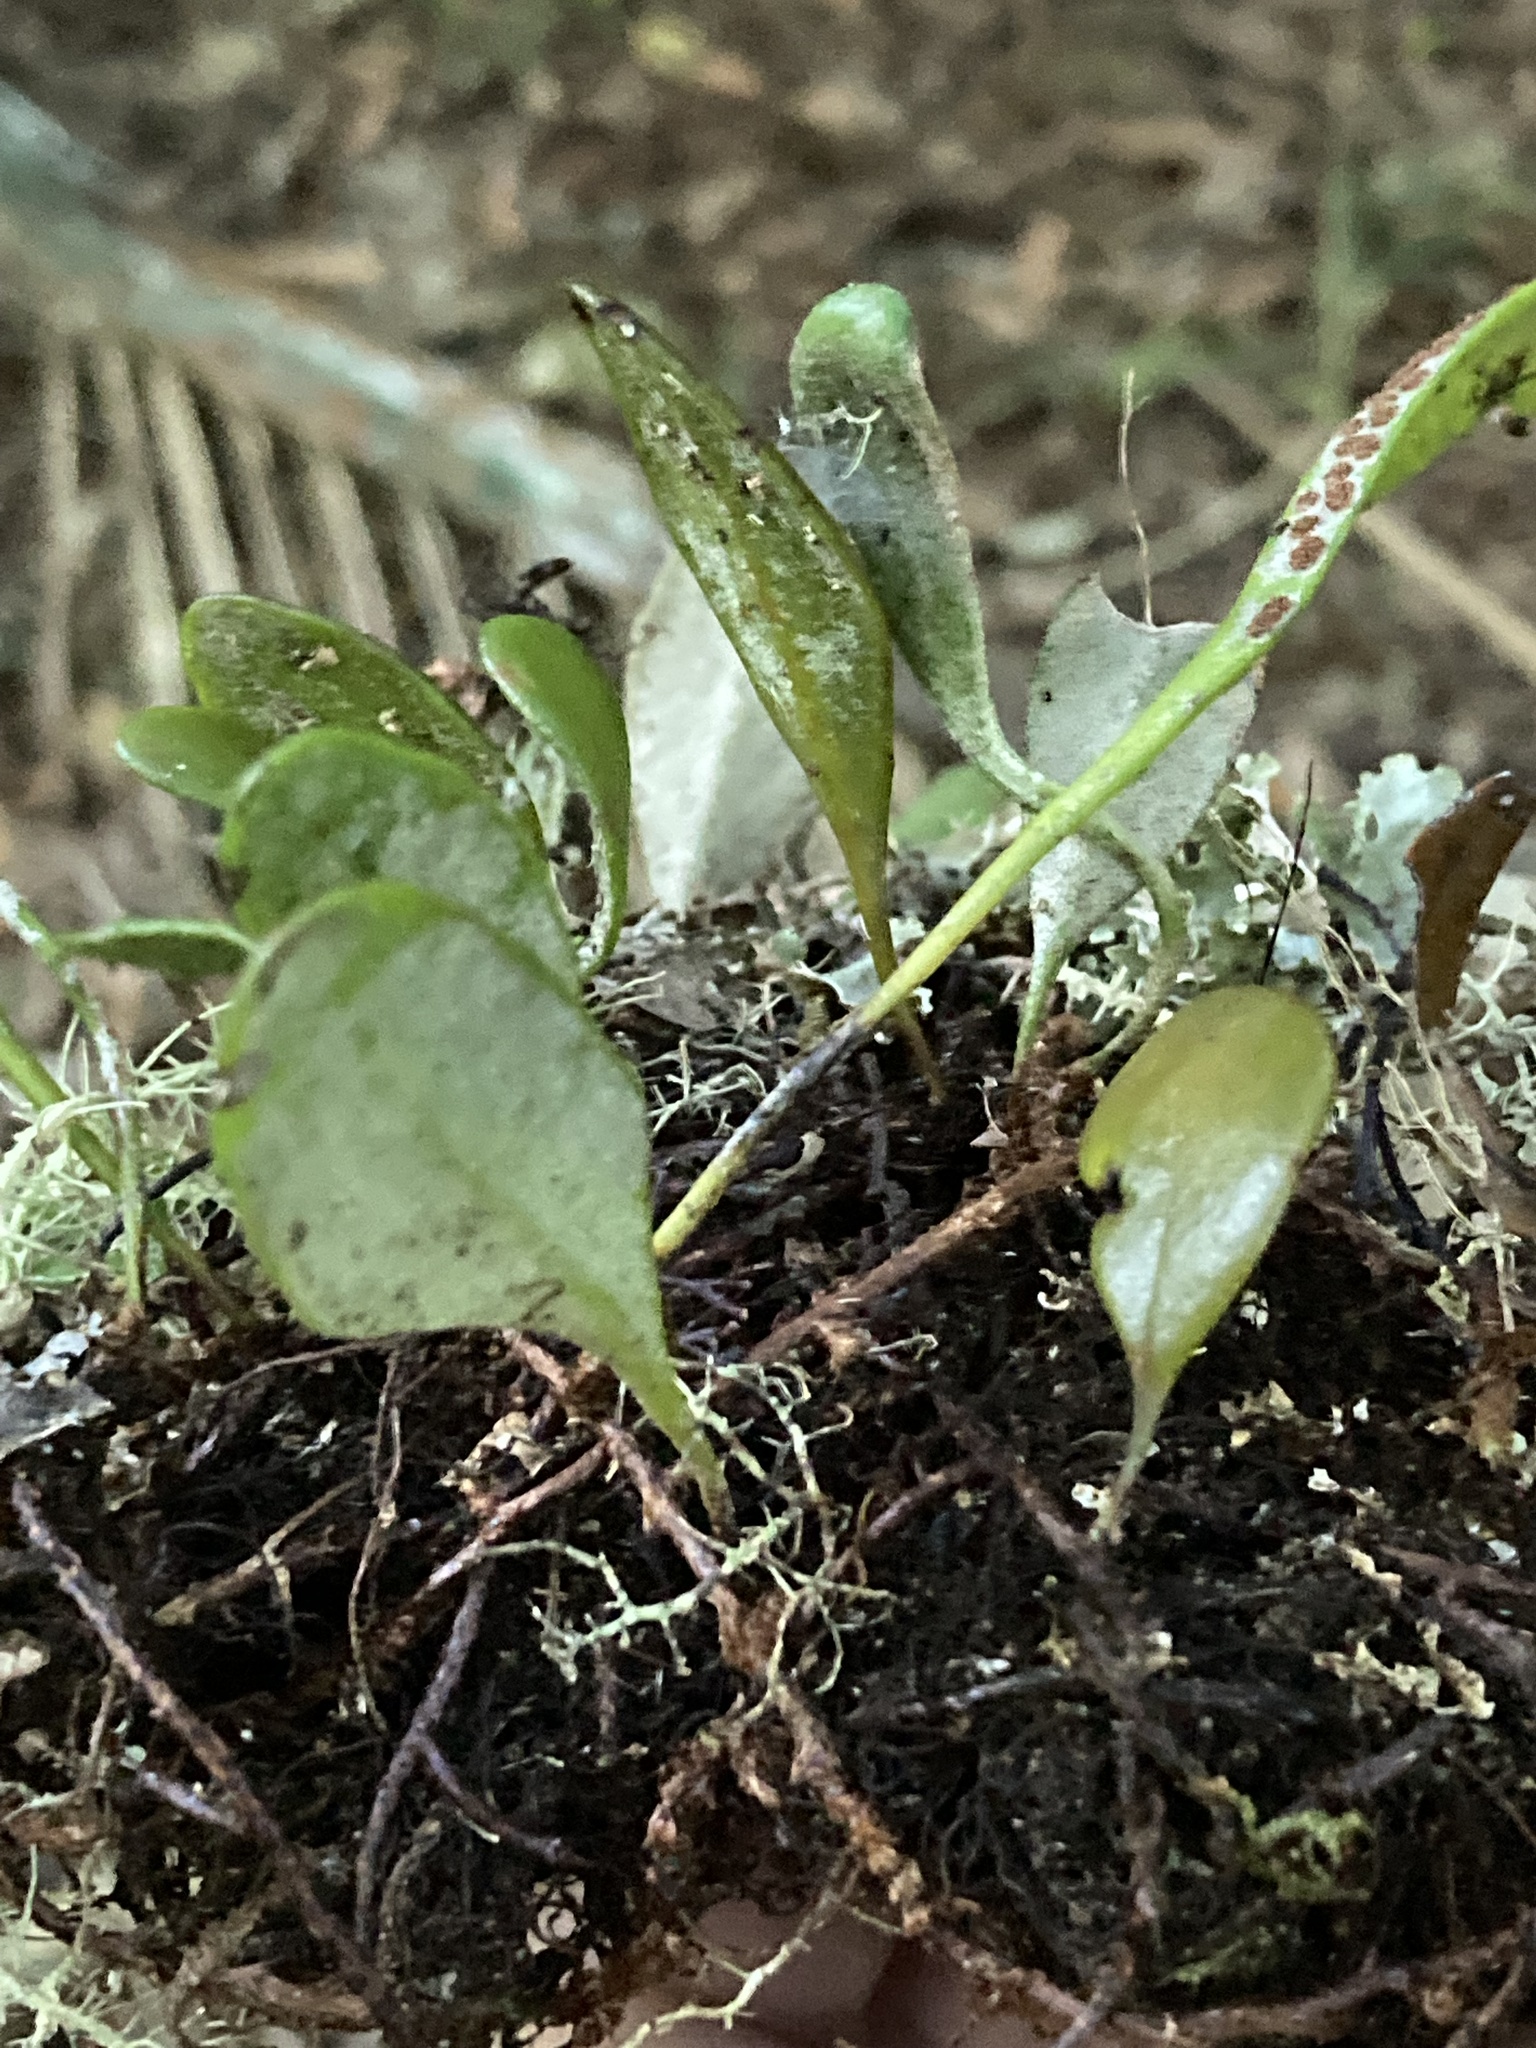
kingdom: Plantae
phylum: Tracheophyta
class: Polypodiopsida
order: Polypodiales
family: Polypodiaceae
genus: Pyrrosia
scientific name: Pyrrosia eleagnifolia
